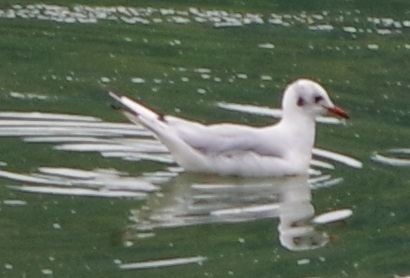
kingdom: Animalia
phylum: Chordata
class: Aves
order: Charadriiformes
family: Laridae
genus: Chroicocephalus
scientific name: Chroicocephalus ridibundus
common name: Black-headed gull
